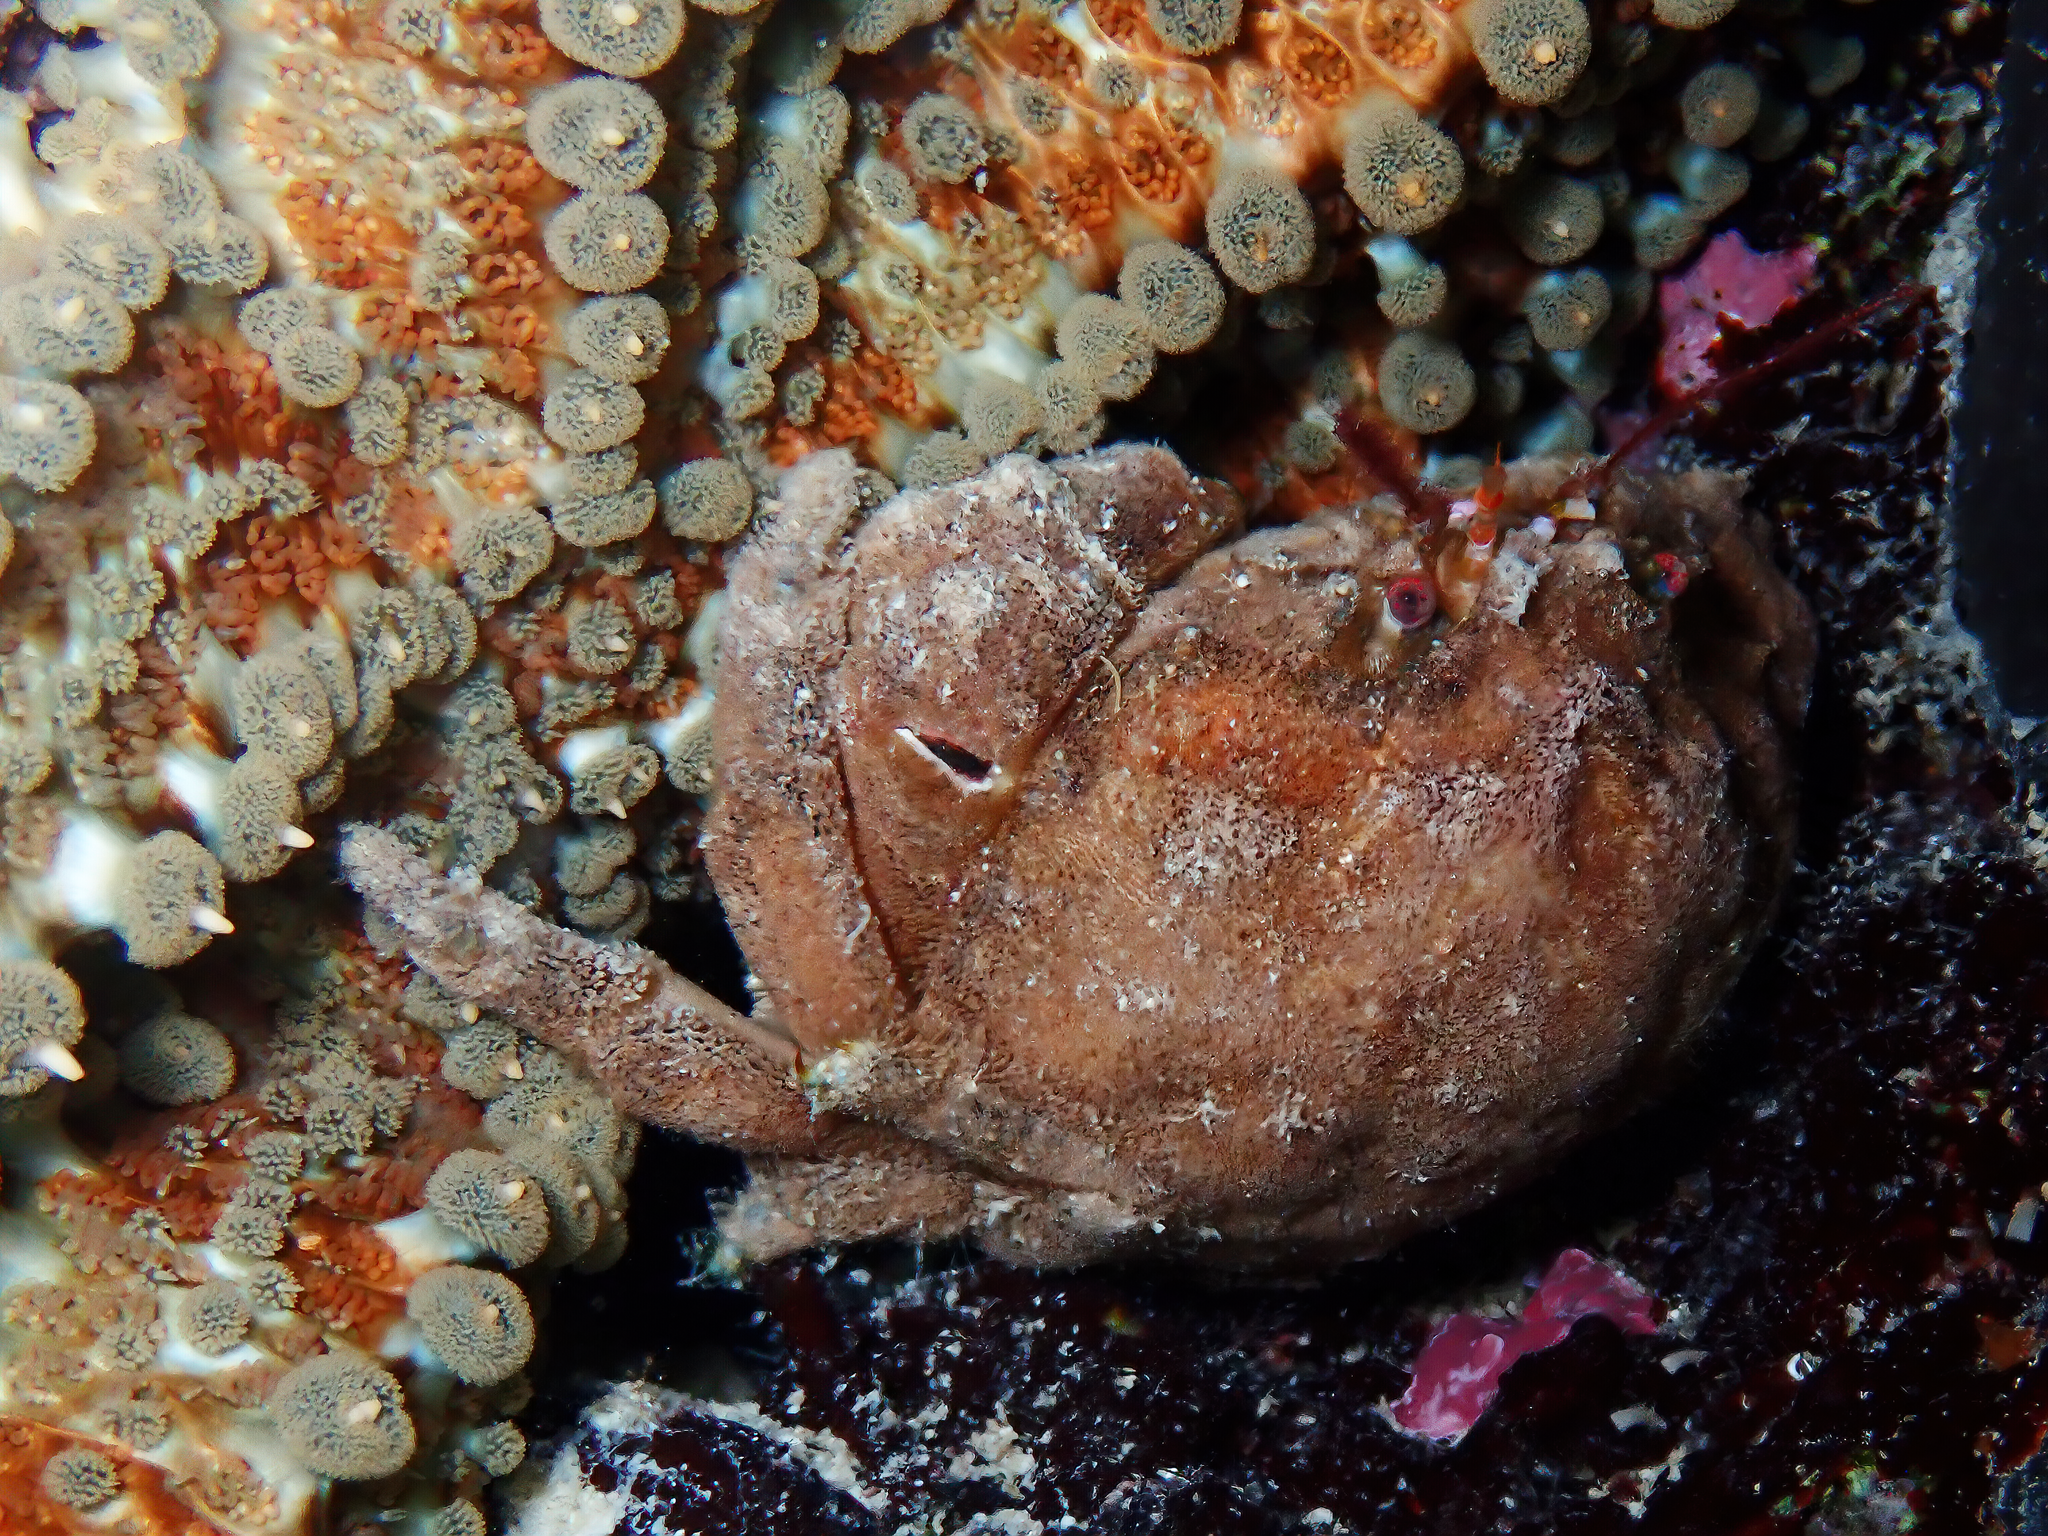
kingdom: Animalia
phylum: Arthropoda
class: Malacostraca
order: Decapoda
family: Dromiidae
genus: Dromia
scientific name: Dromia personata
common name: Sleepy crab
